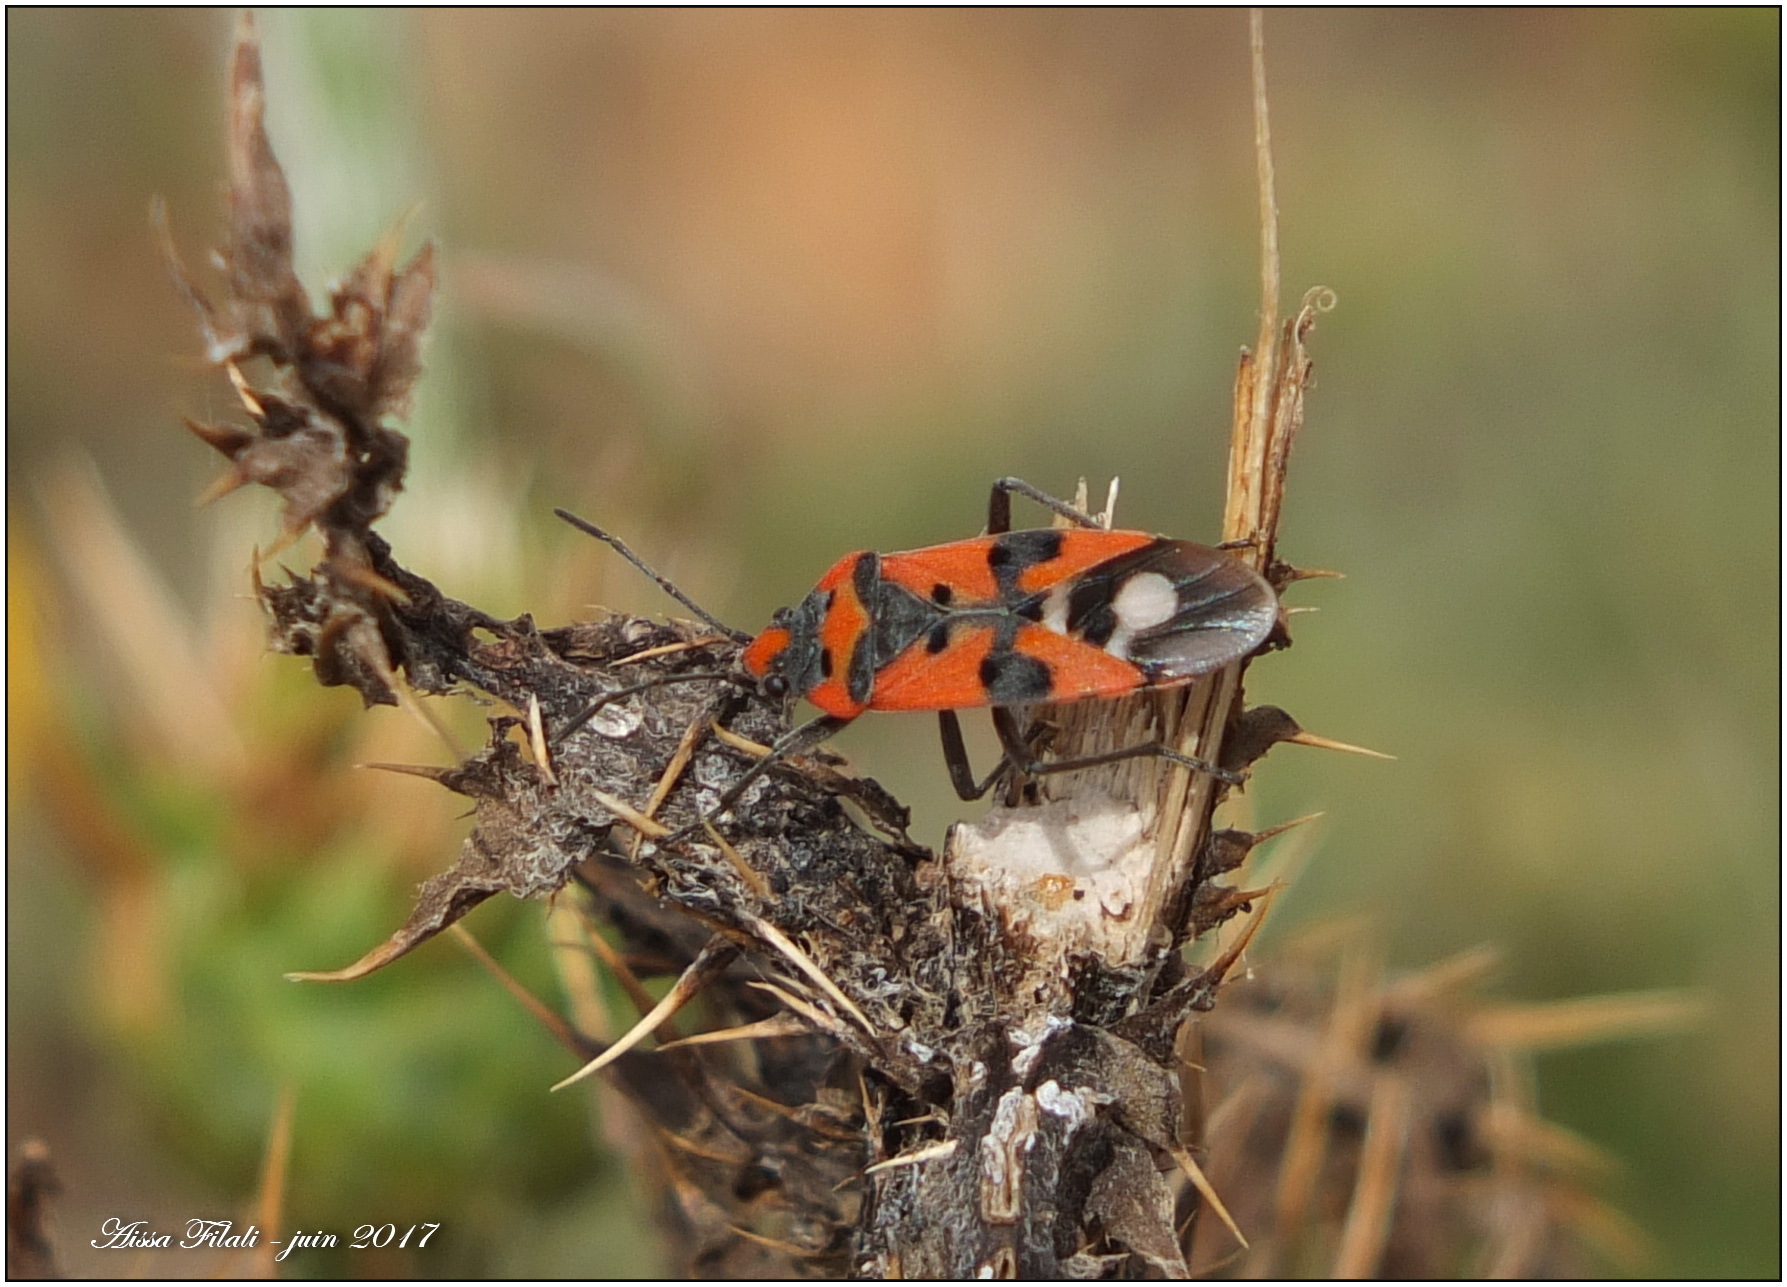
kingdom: Animalia
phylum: Arthropoda
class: Insecta
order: Hemiptera
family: Lygaeidae
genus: Lygaeus
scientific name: Lygaeus equestris
